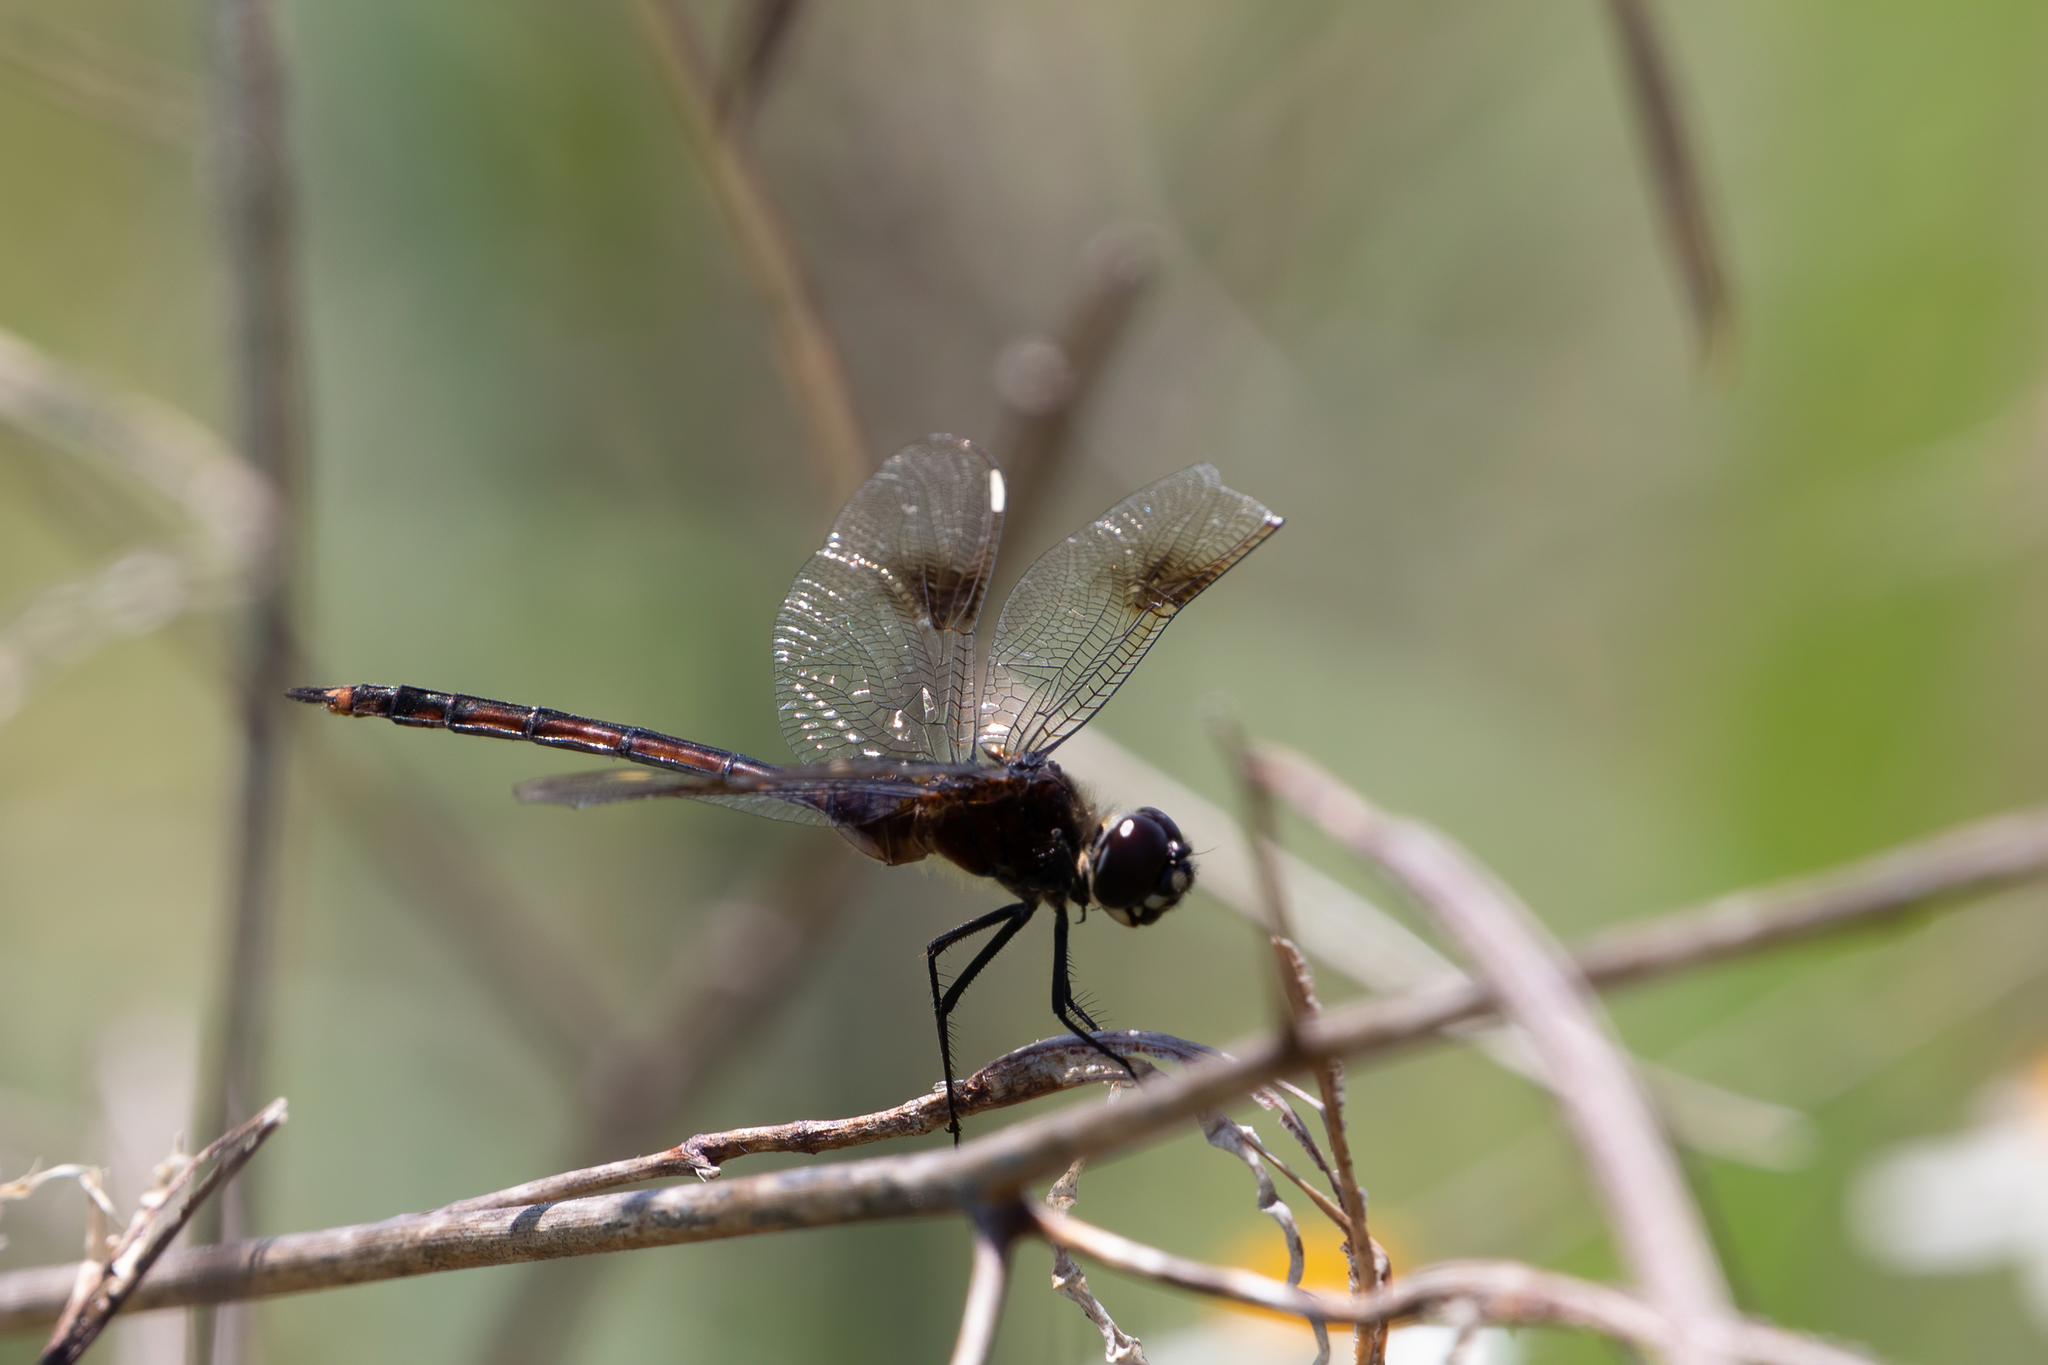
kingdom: Animalia
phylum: Arthropoda
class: Insecta
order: Odonata
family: Libellulidae
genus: Brachymesia
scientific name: Brachymesia gravida
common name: Four-spotted pennant
